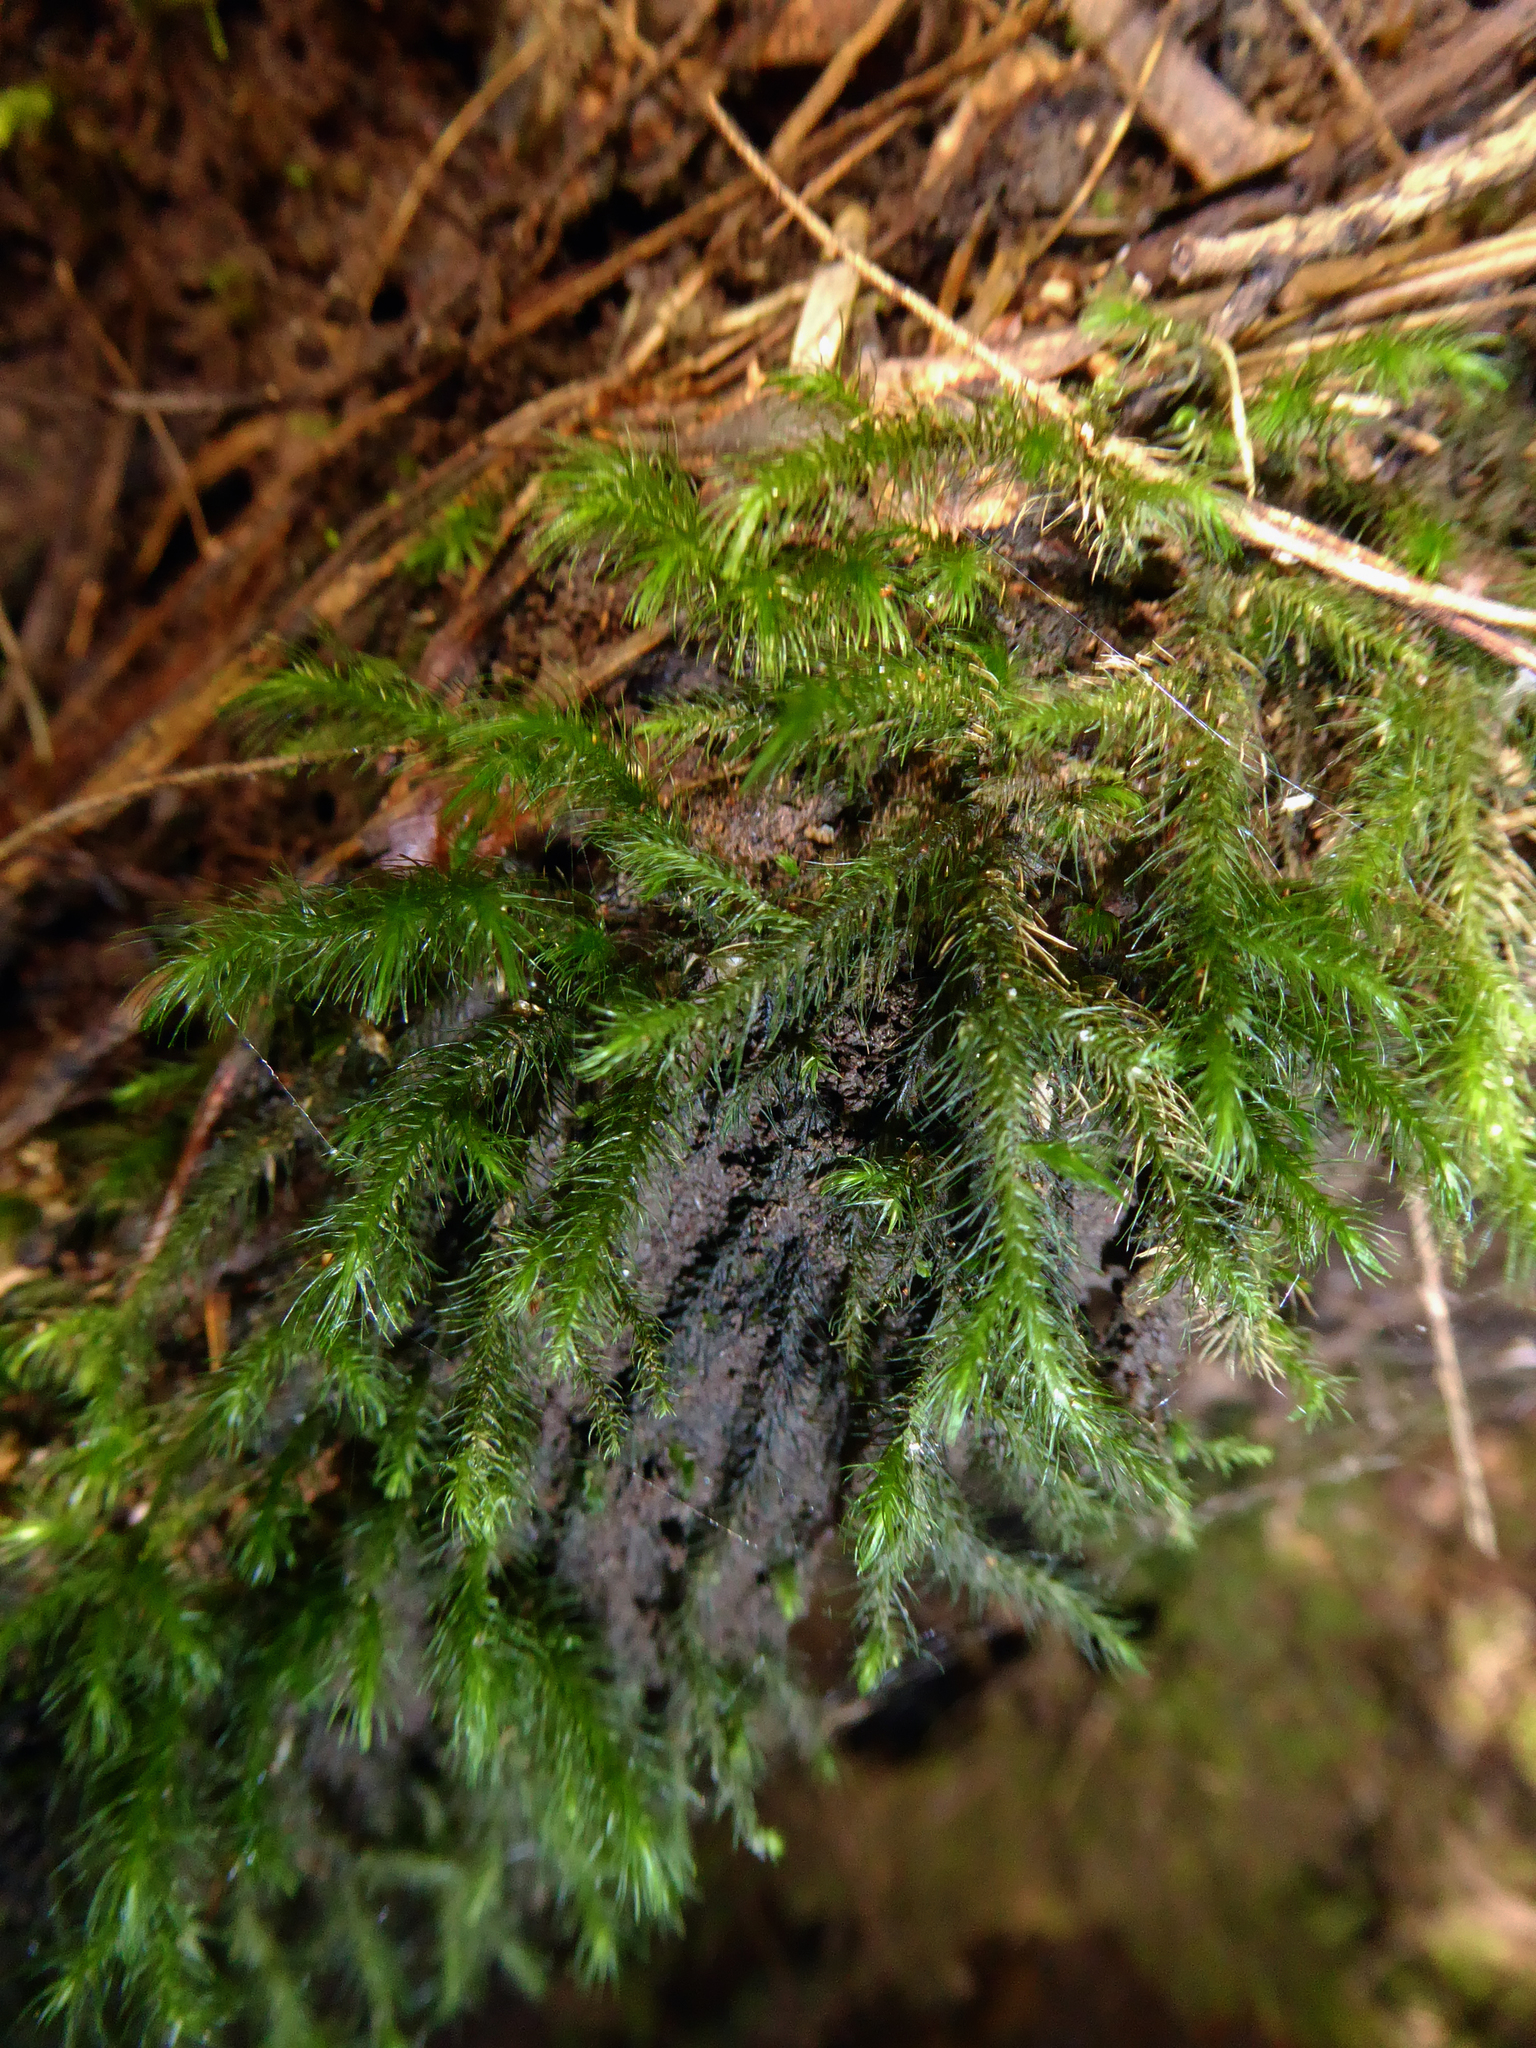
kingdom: Plantae
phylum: Bryophyta
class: Bryopsida
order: Hypnales
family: Neckeraceae
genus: Echinodiopsis
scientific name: Echinodiopsis hispida
